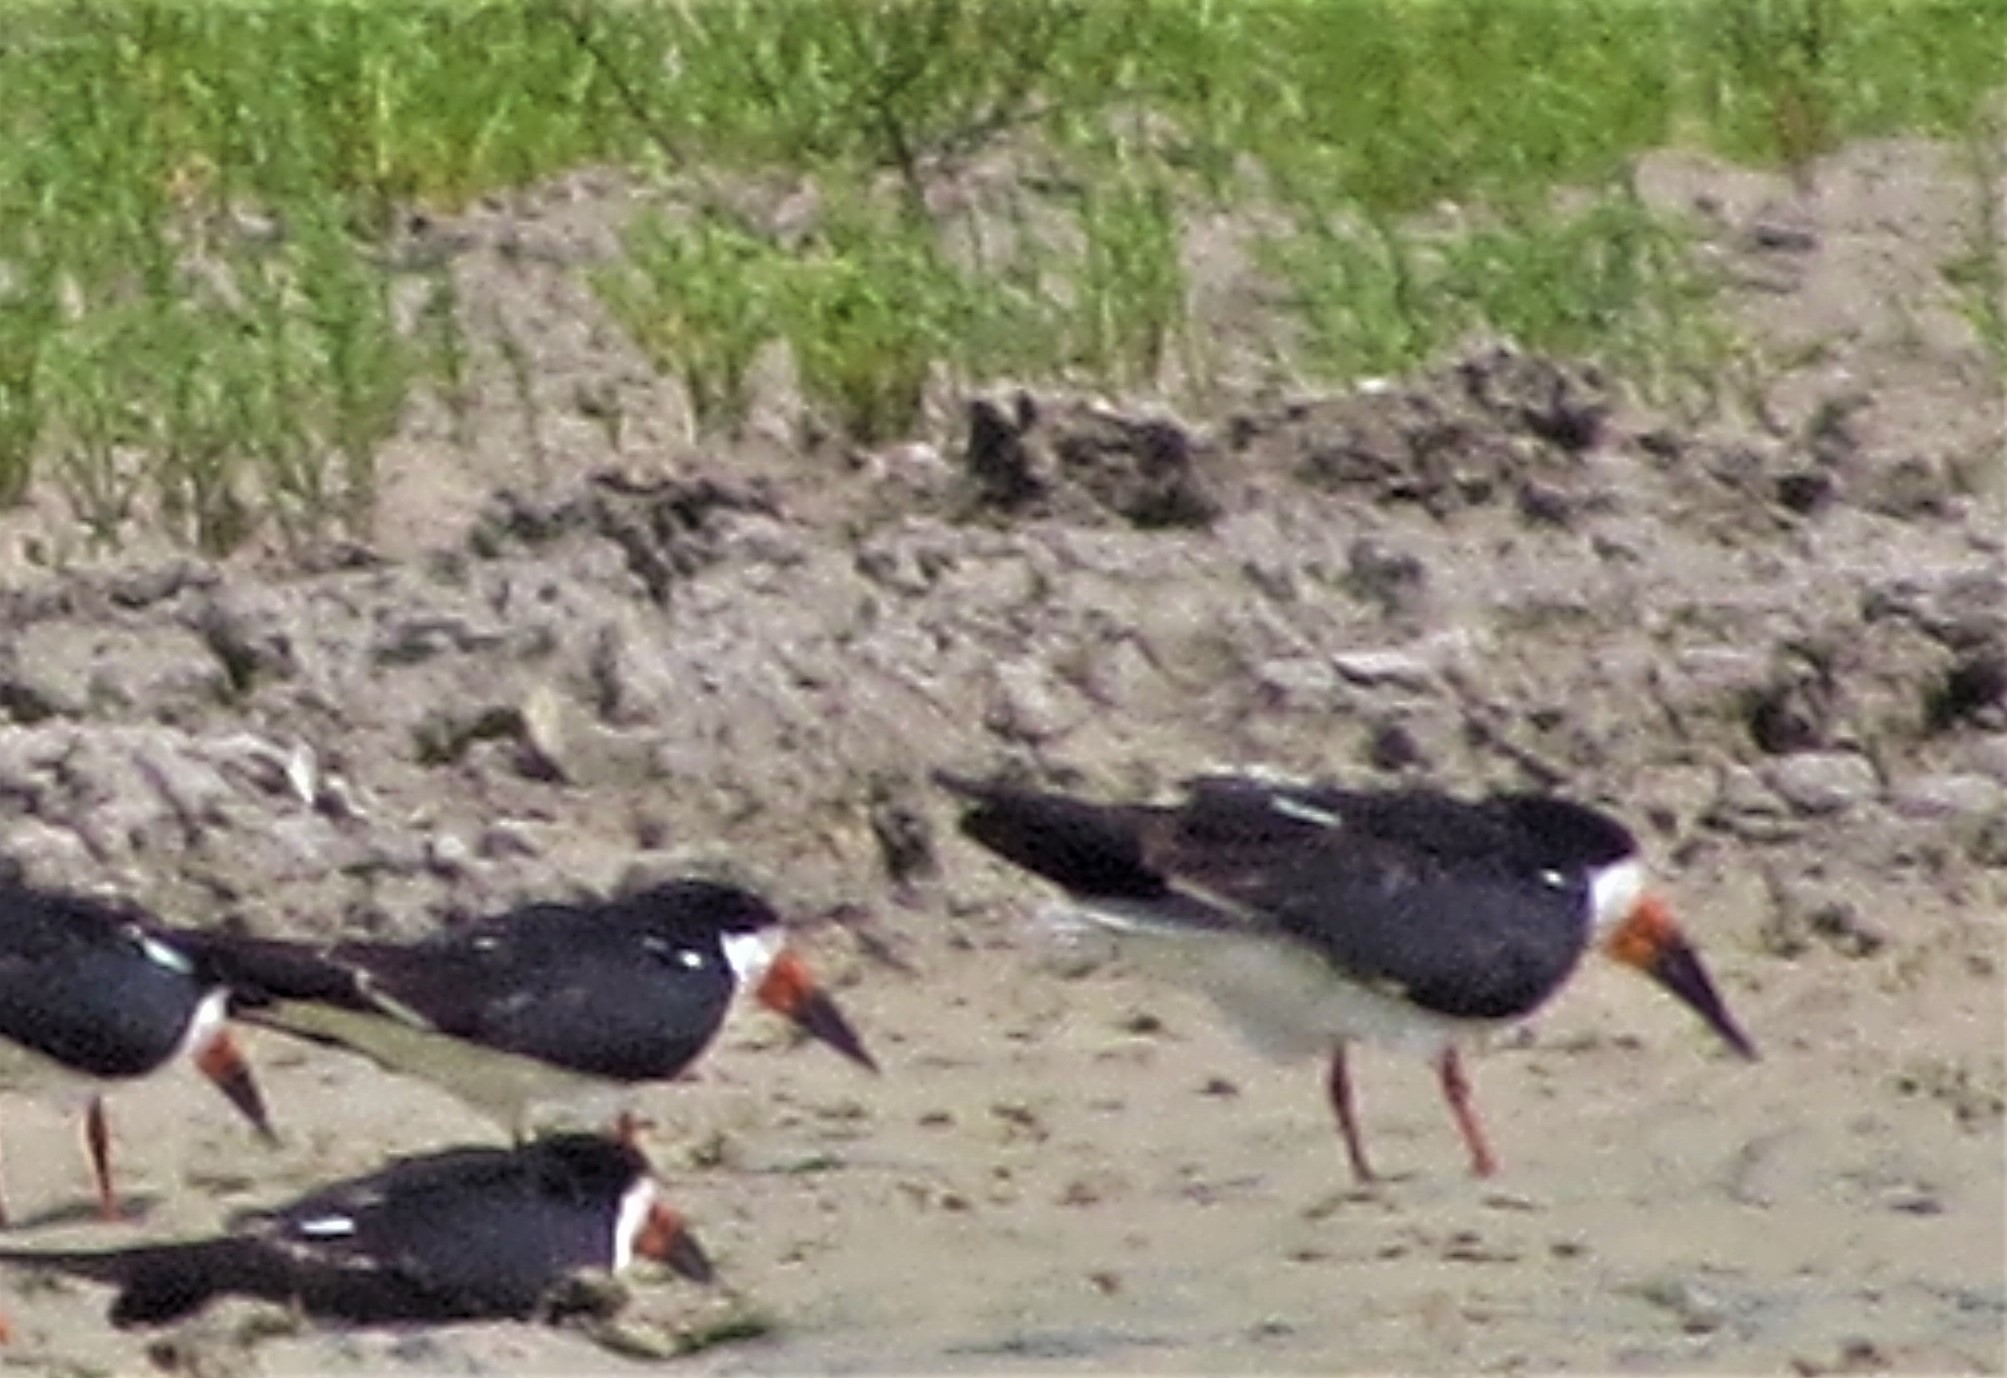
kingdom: Animalia
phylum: Chordata
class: Aves
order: Charadriiformes
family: Laridae
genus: Rynchops
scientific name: Rynchops niger
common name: Black skimmer
